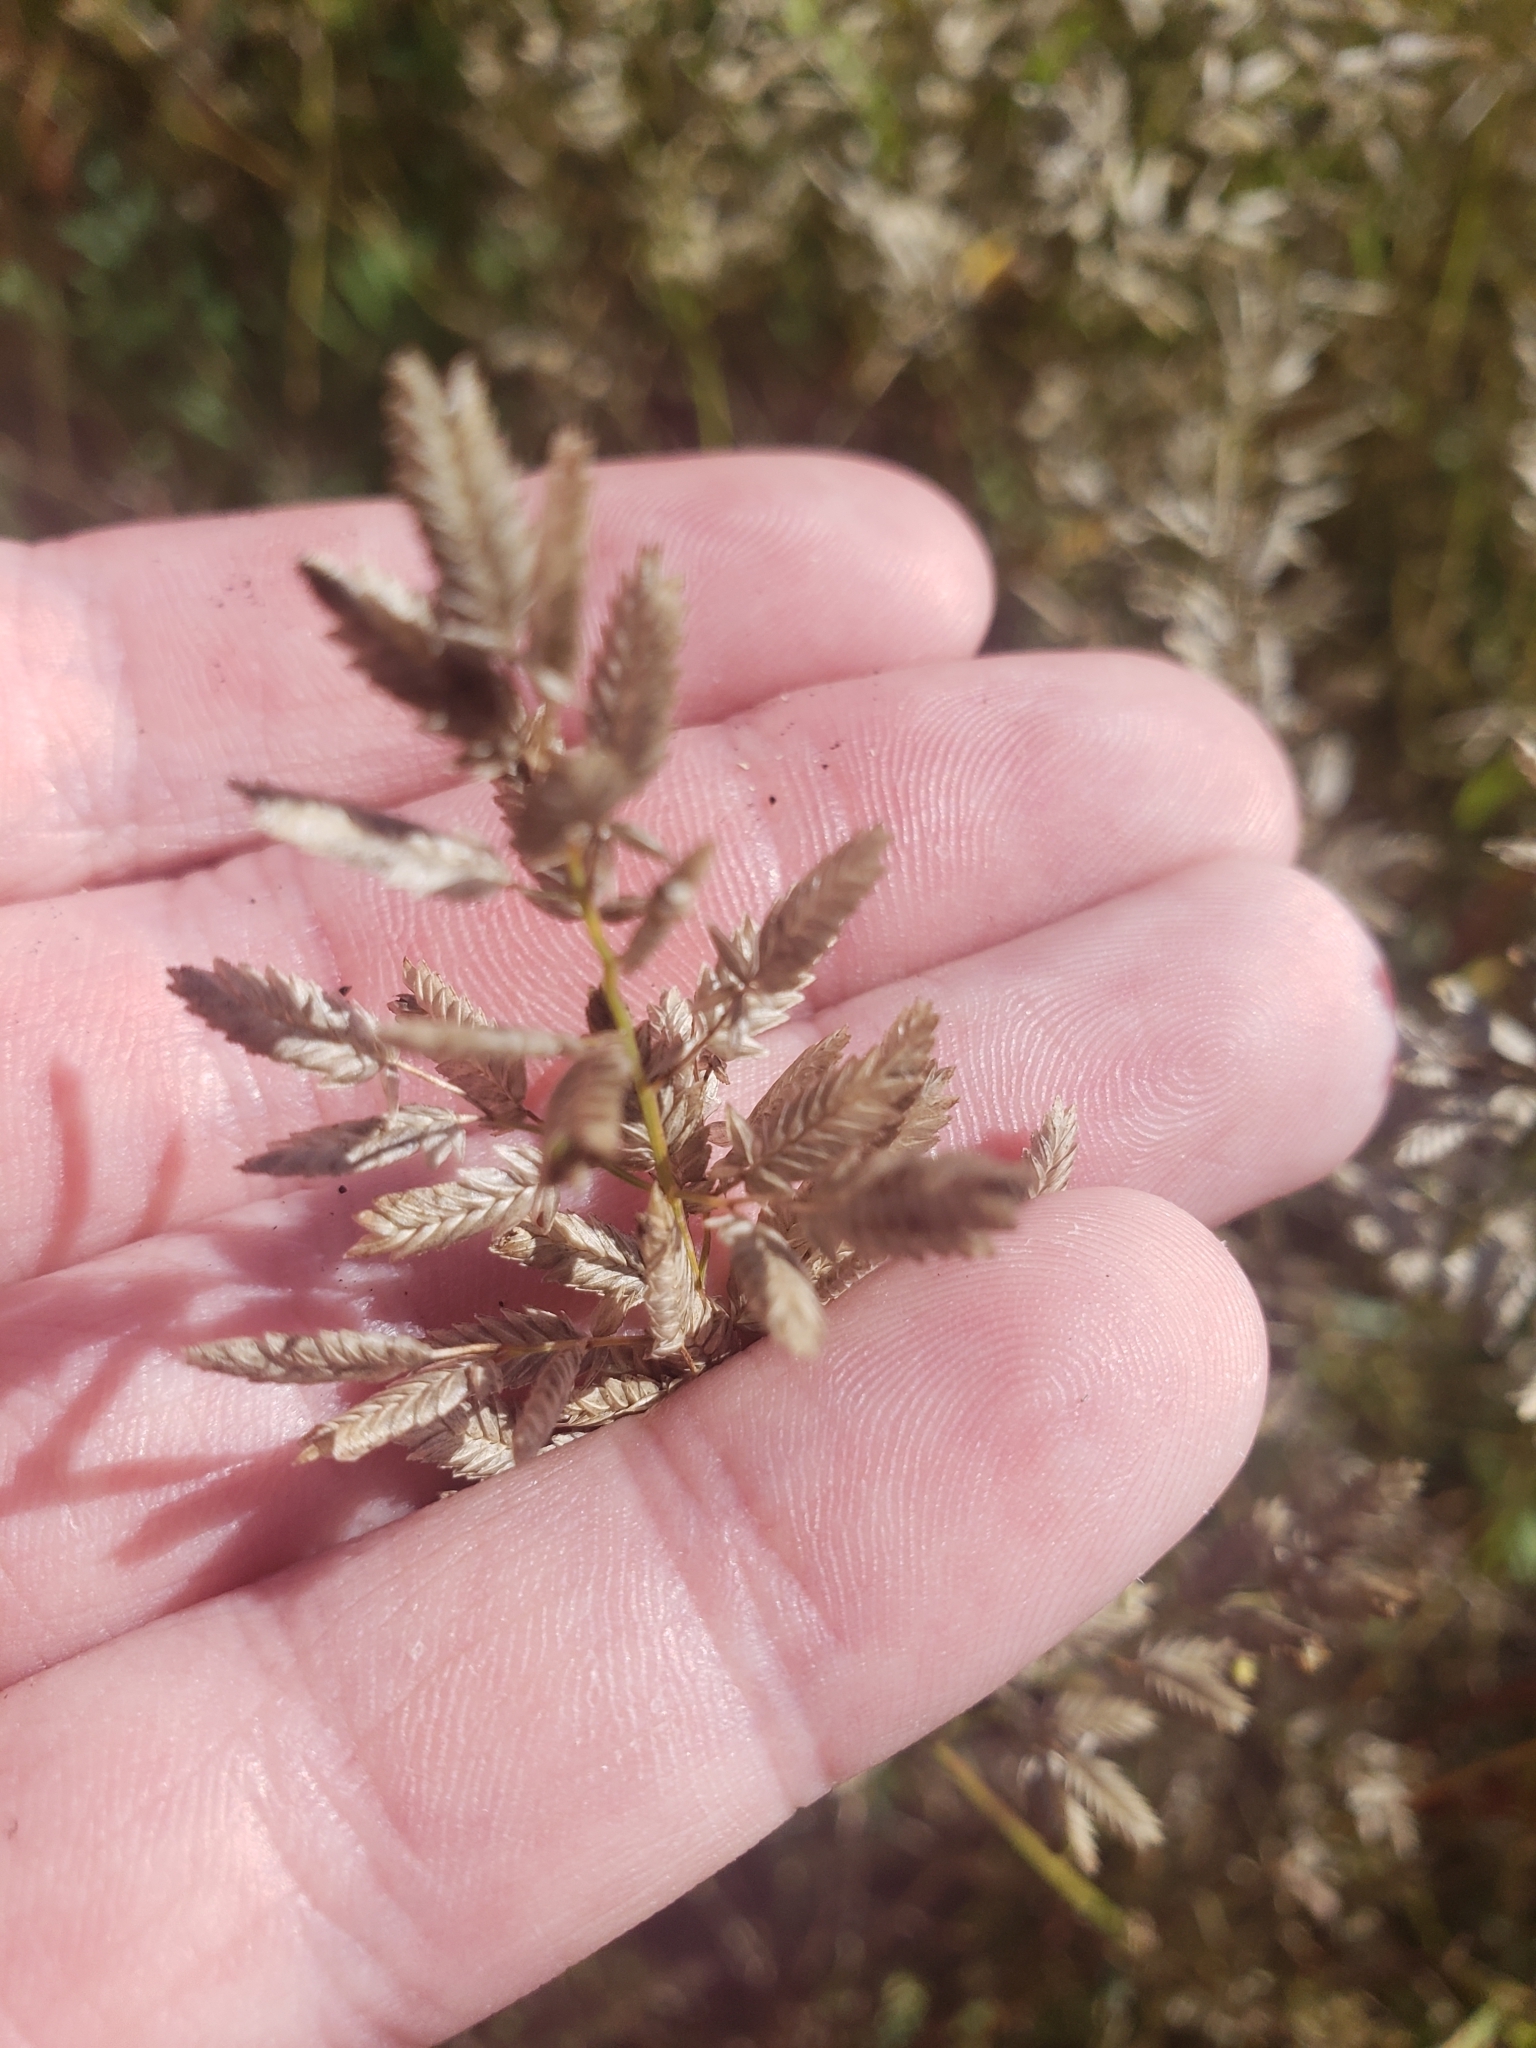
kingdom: Plantae
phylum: Tracheophyta
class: Liliopsida
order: Poales
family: Poaceae
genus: Eragrostis
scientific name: Eragrostis cilianensis
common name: Stinkgrass
